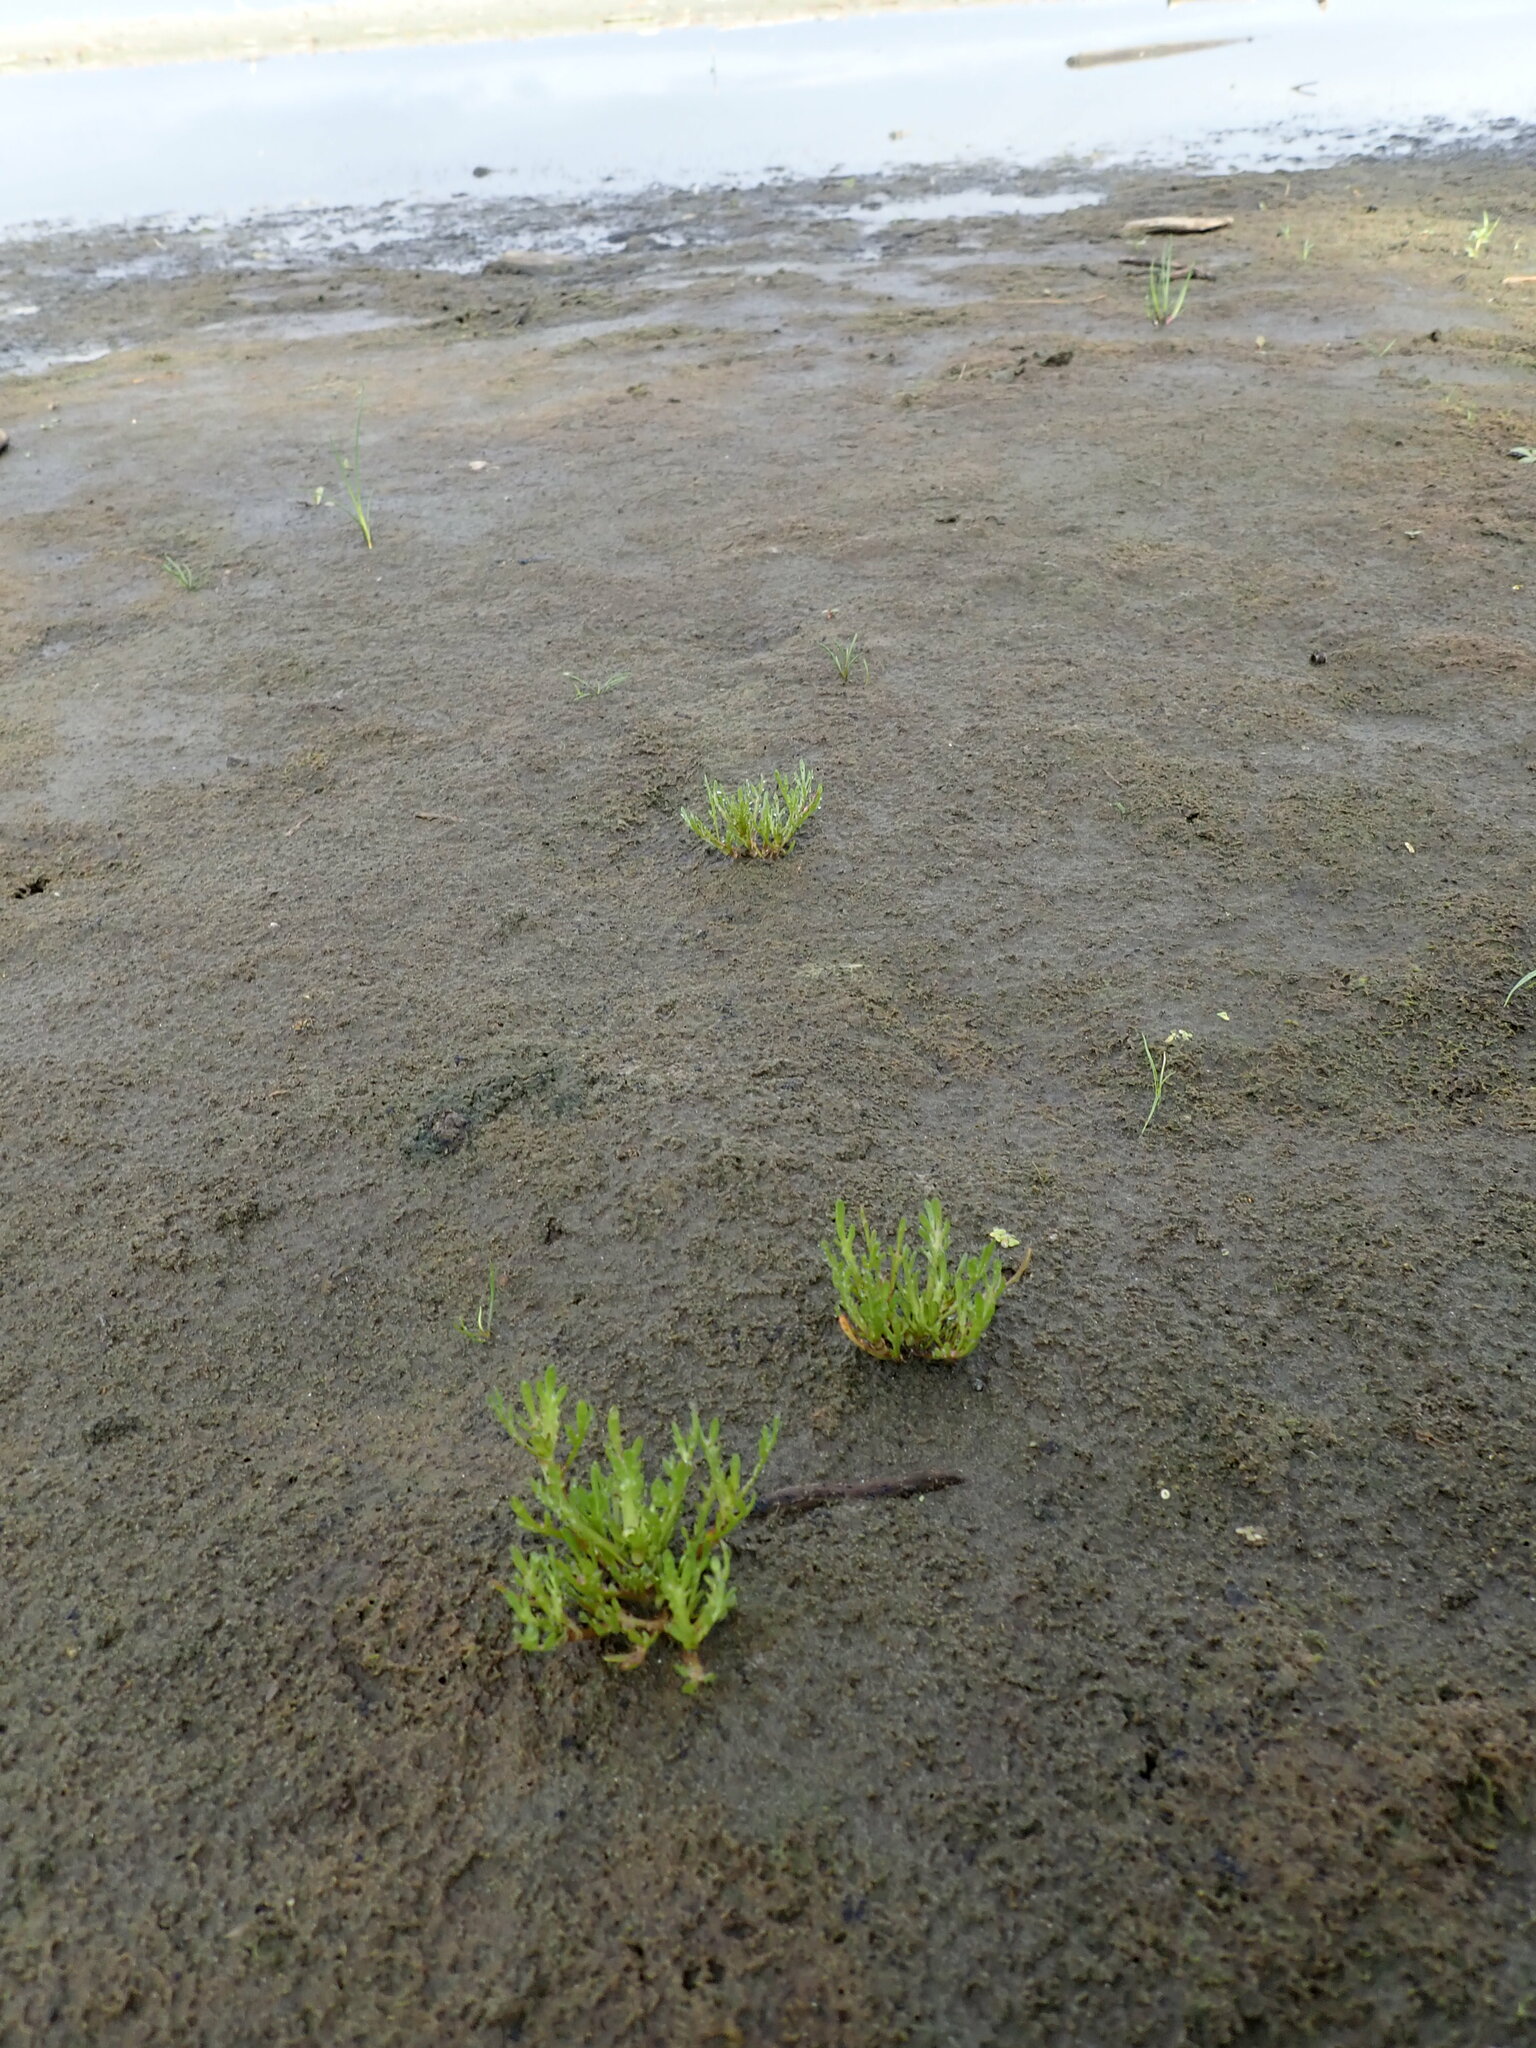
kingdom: Plantae
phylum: Tracheophyta
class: Magnoliopsida
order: Asterales
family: Asteraceae
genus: Cotula
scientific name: Cotula coronopifolia
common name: Buttonweed
